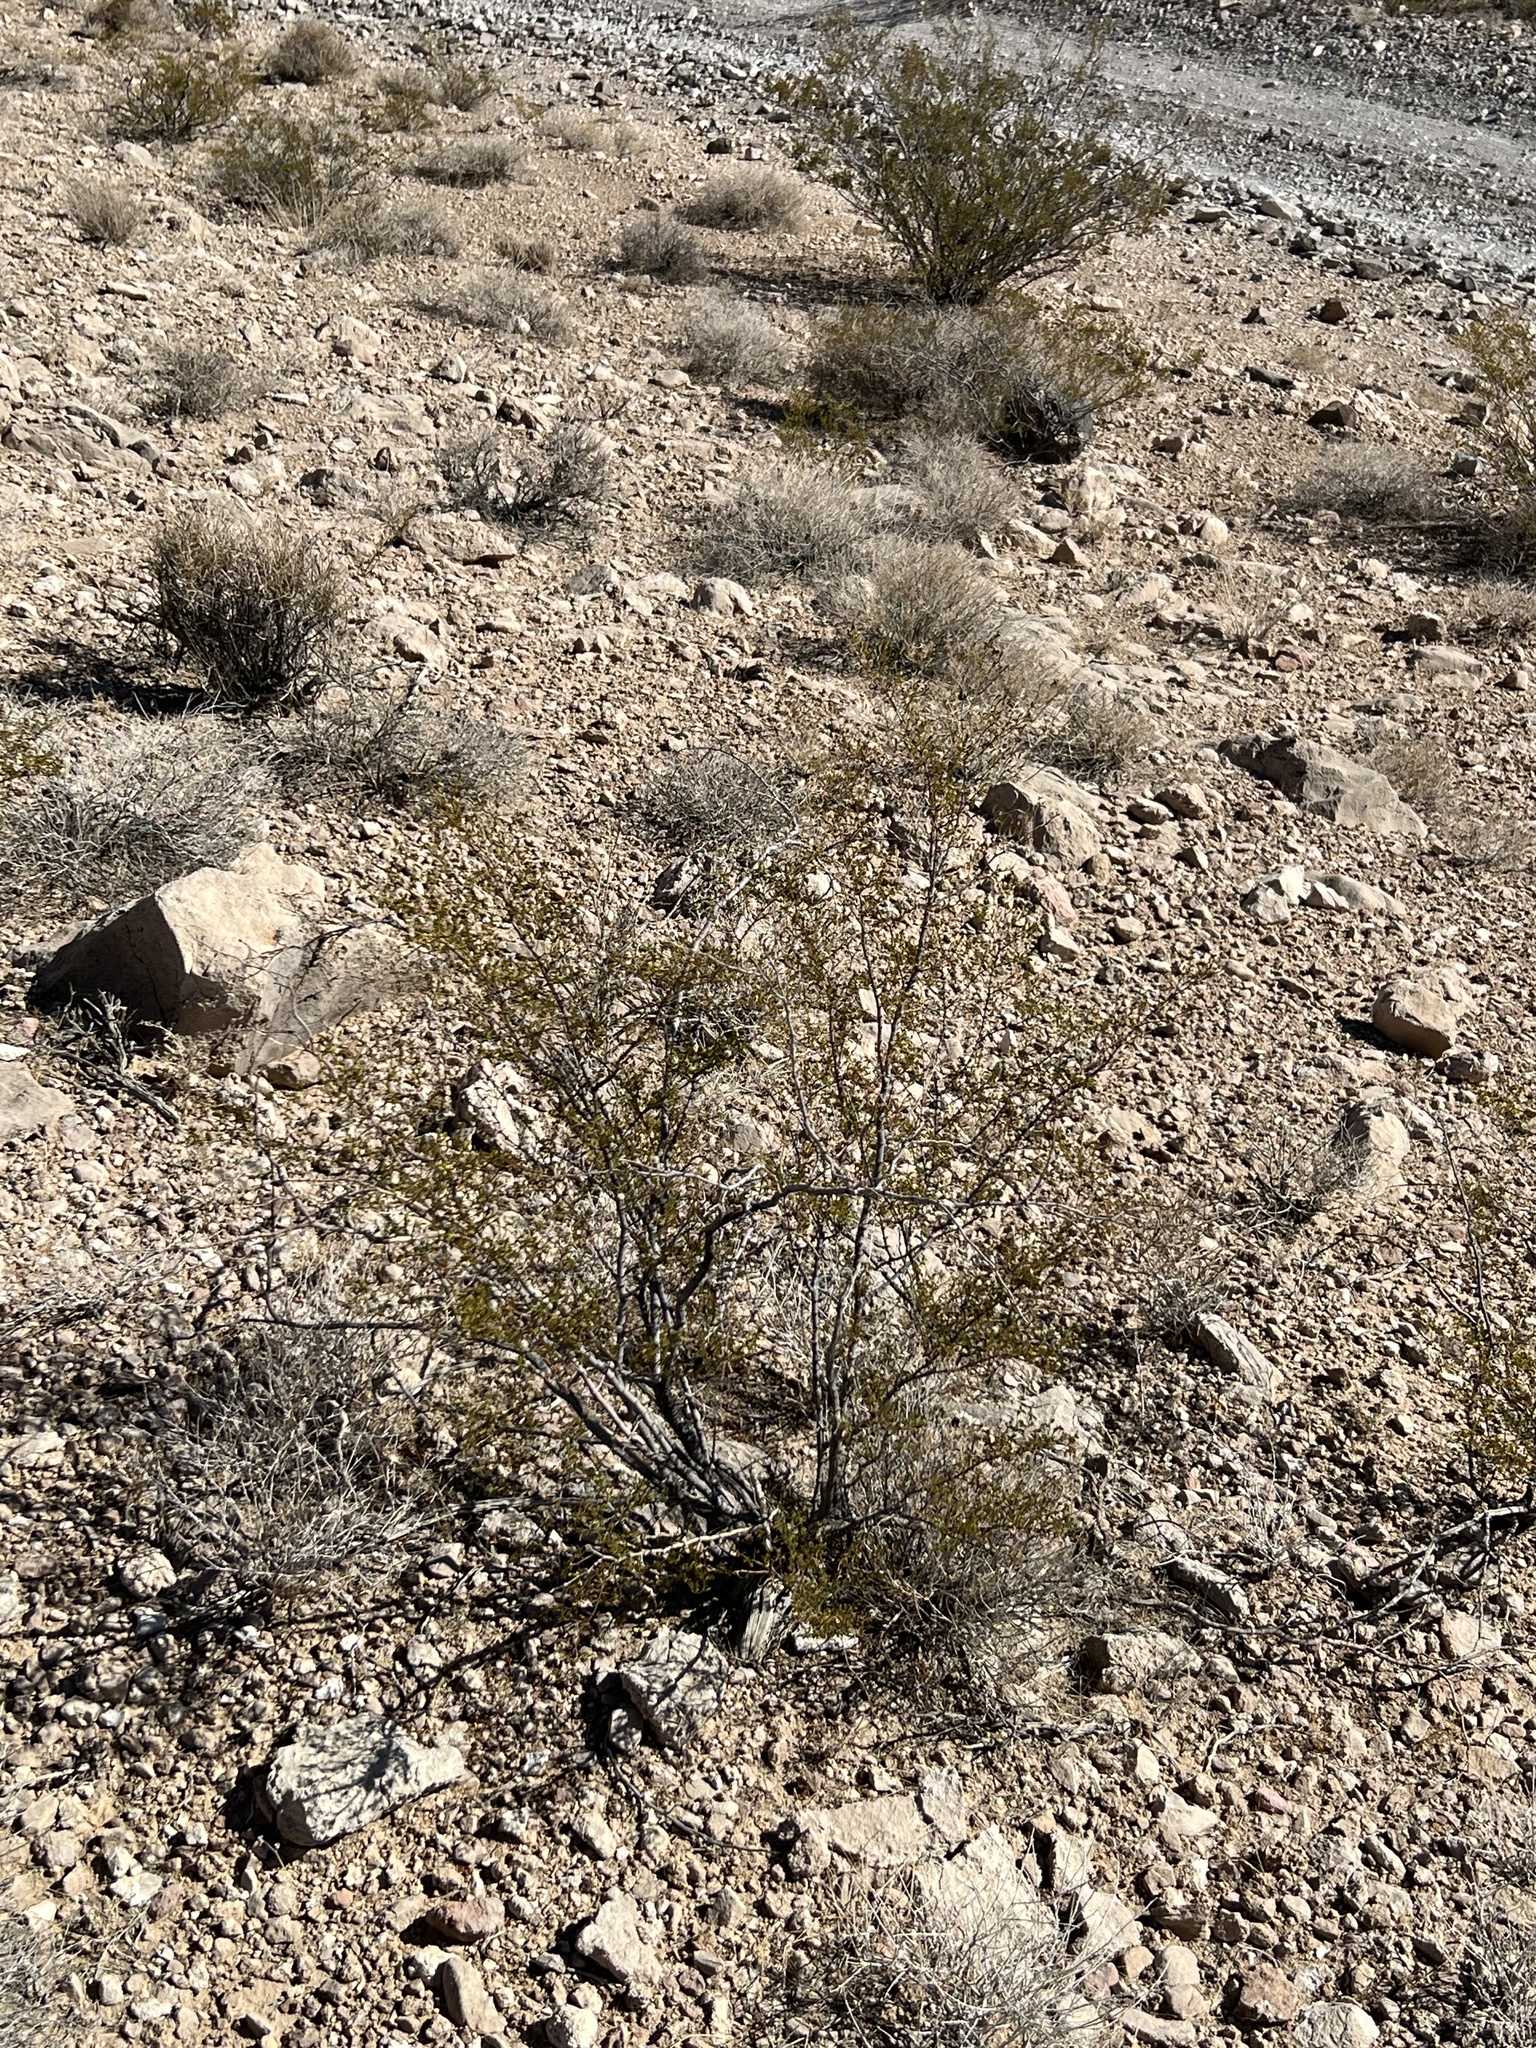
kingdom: Plantae
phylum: Tracheophyta
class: Magnoliopsida
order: Zygophyllales
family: Zygophyllaceae
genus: Larrea
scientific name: Larrea tridentata
